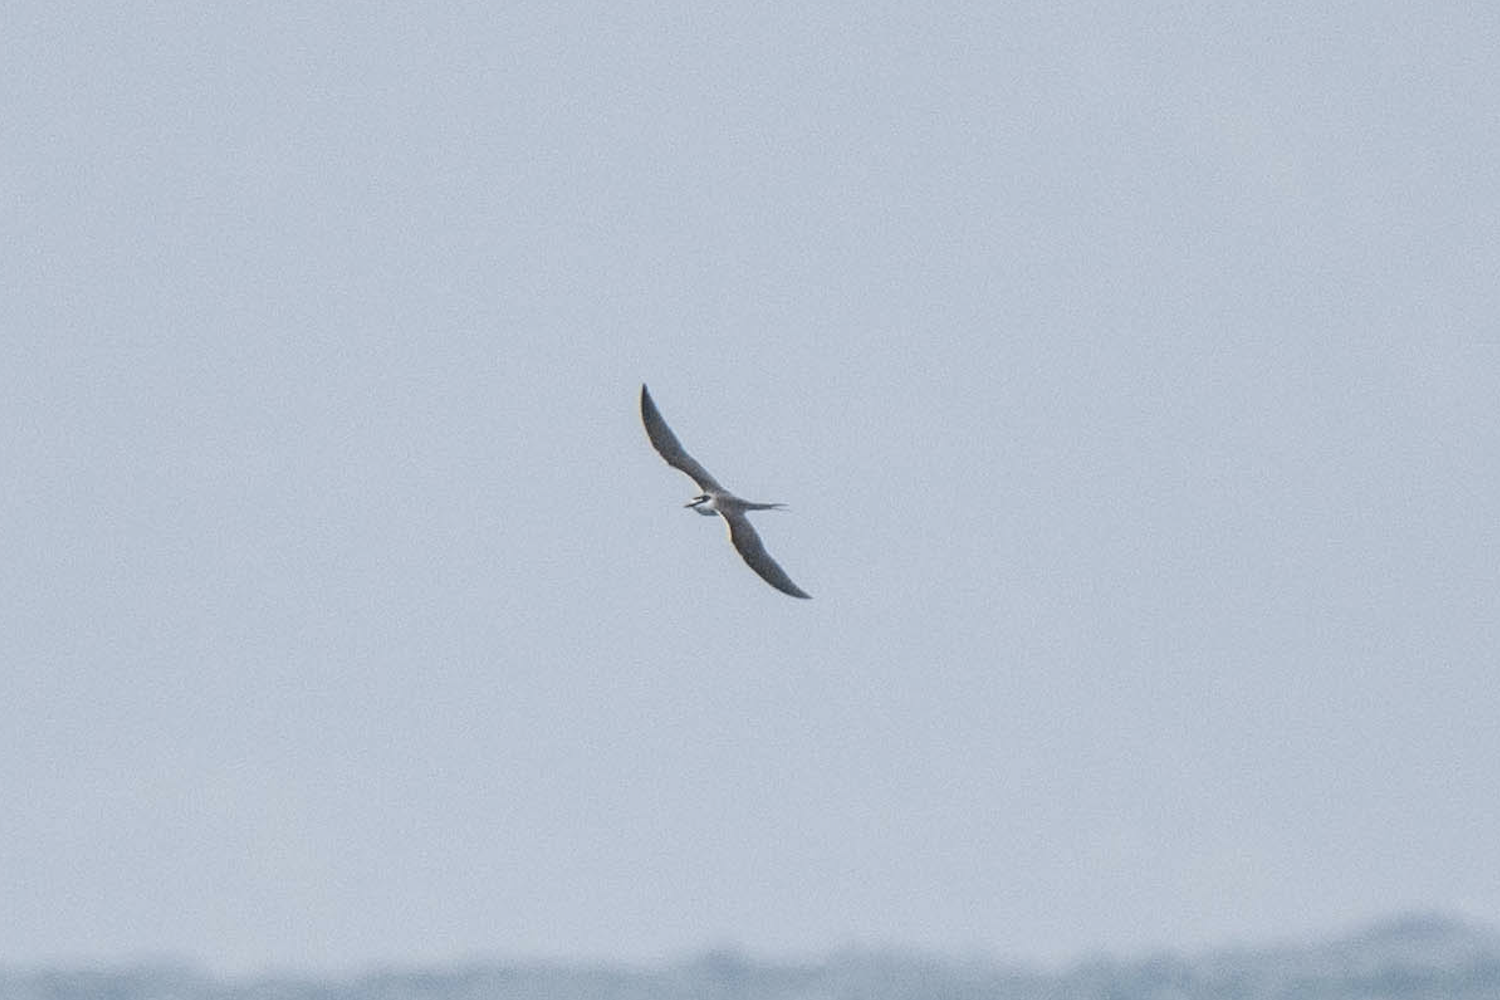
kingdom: Animalia
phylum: Chordata
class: Aves
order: Charadriiformes
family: Laridae
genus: Onychoprion
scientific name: Onychoprion anaethetus
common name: Bridled tern
